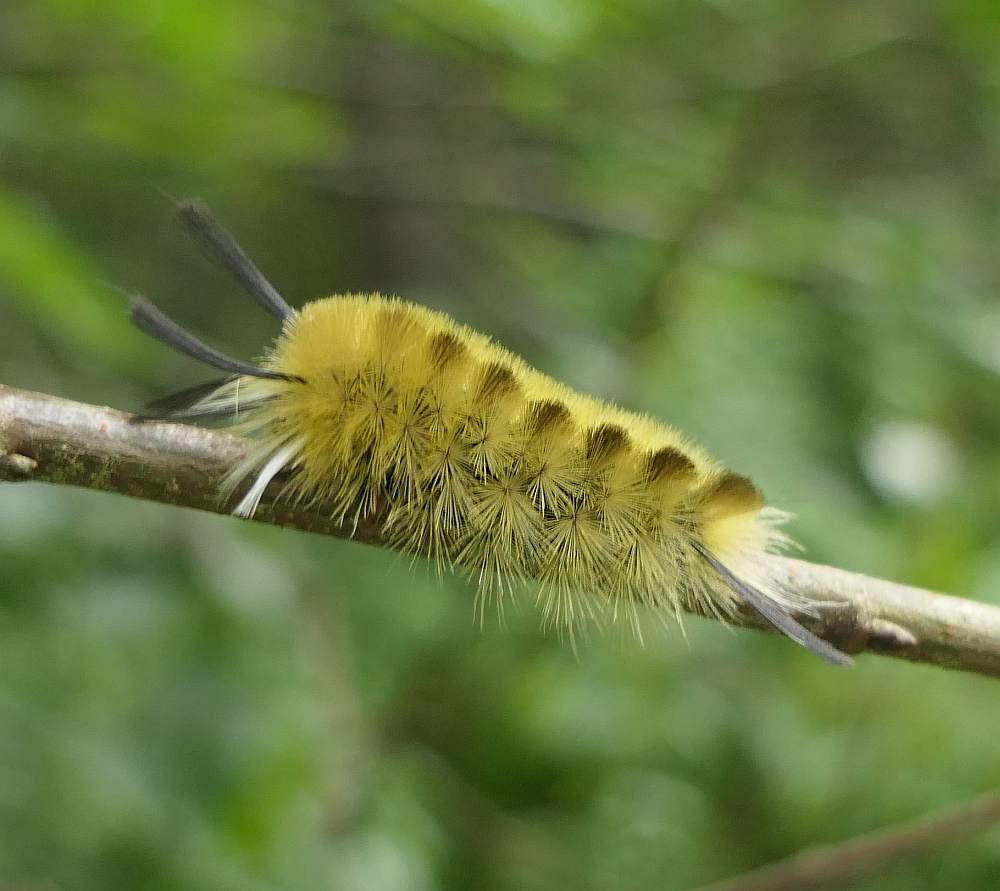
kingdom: Animalia
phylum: Arthropoda
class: Insecta
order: Lepidoptera
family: Erebidae
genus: Halysidota
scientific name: Halysidota tessellaris
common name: Banded tussock moth
